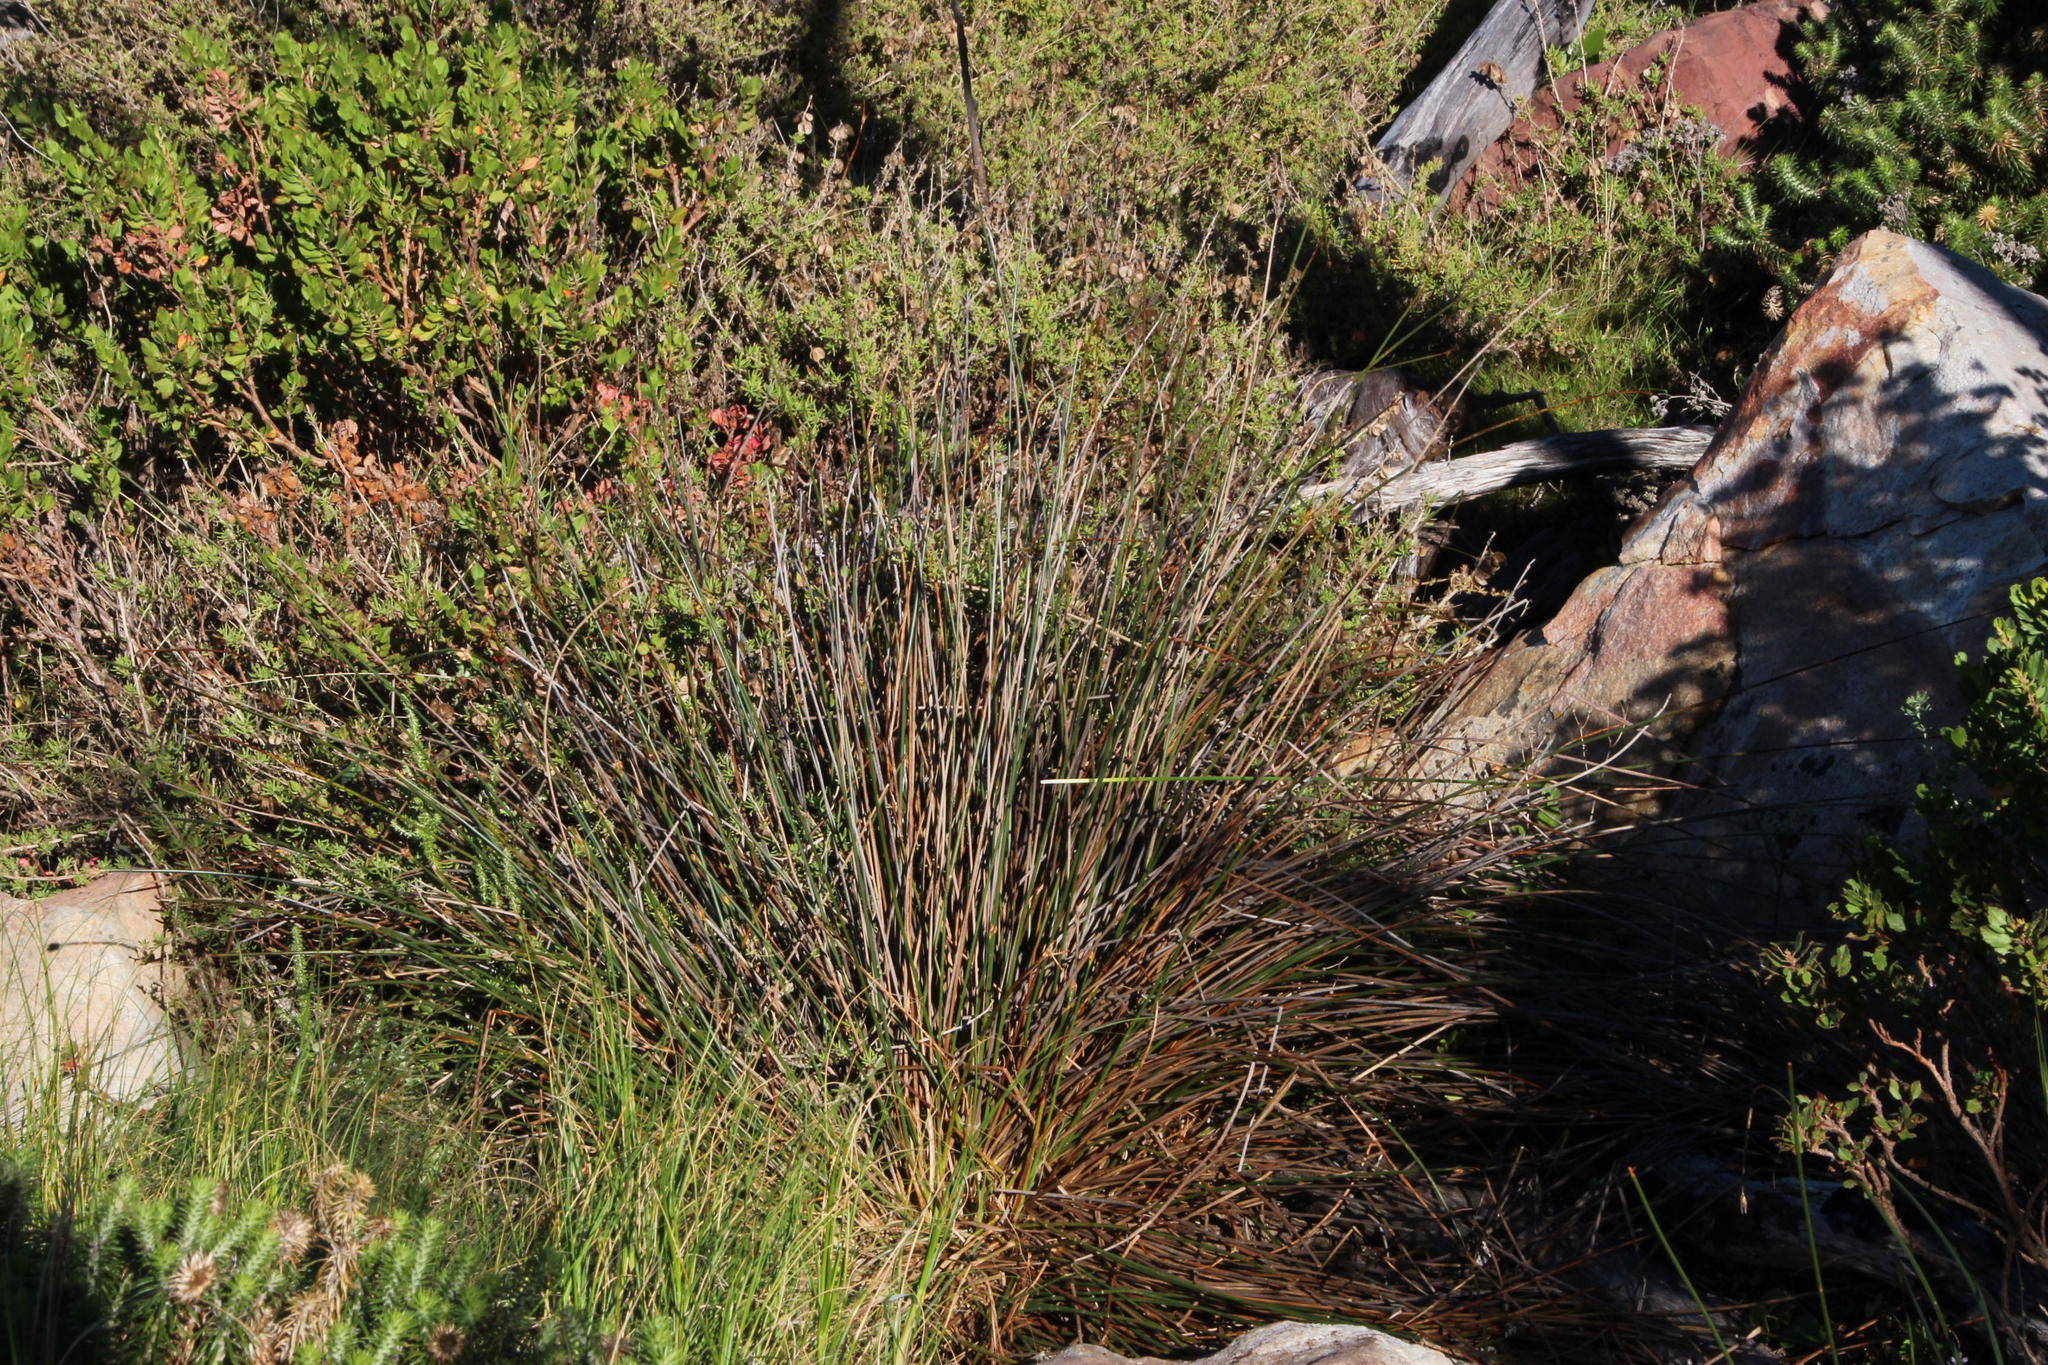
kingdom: Plantae
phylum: Tracheophyta
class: Liliopsida
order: Poales
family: Cyperaceae
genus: Hellmuthia
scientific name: Hellmuthia membranacea
